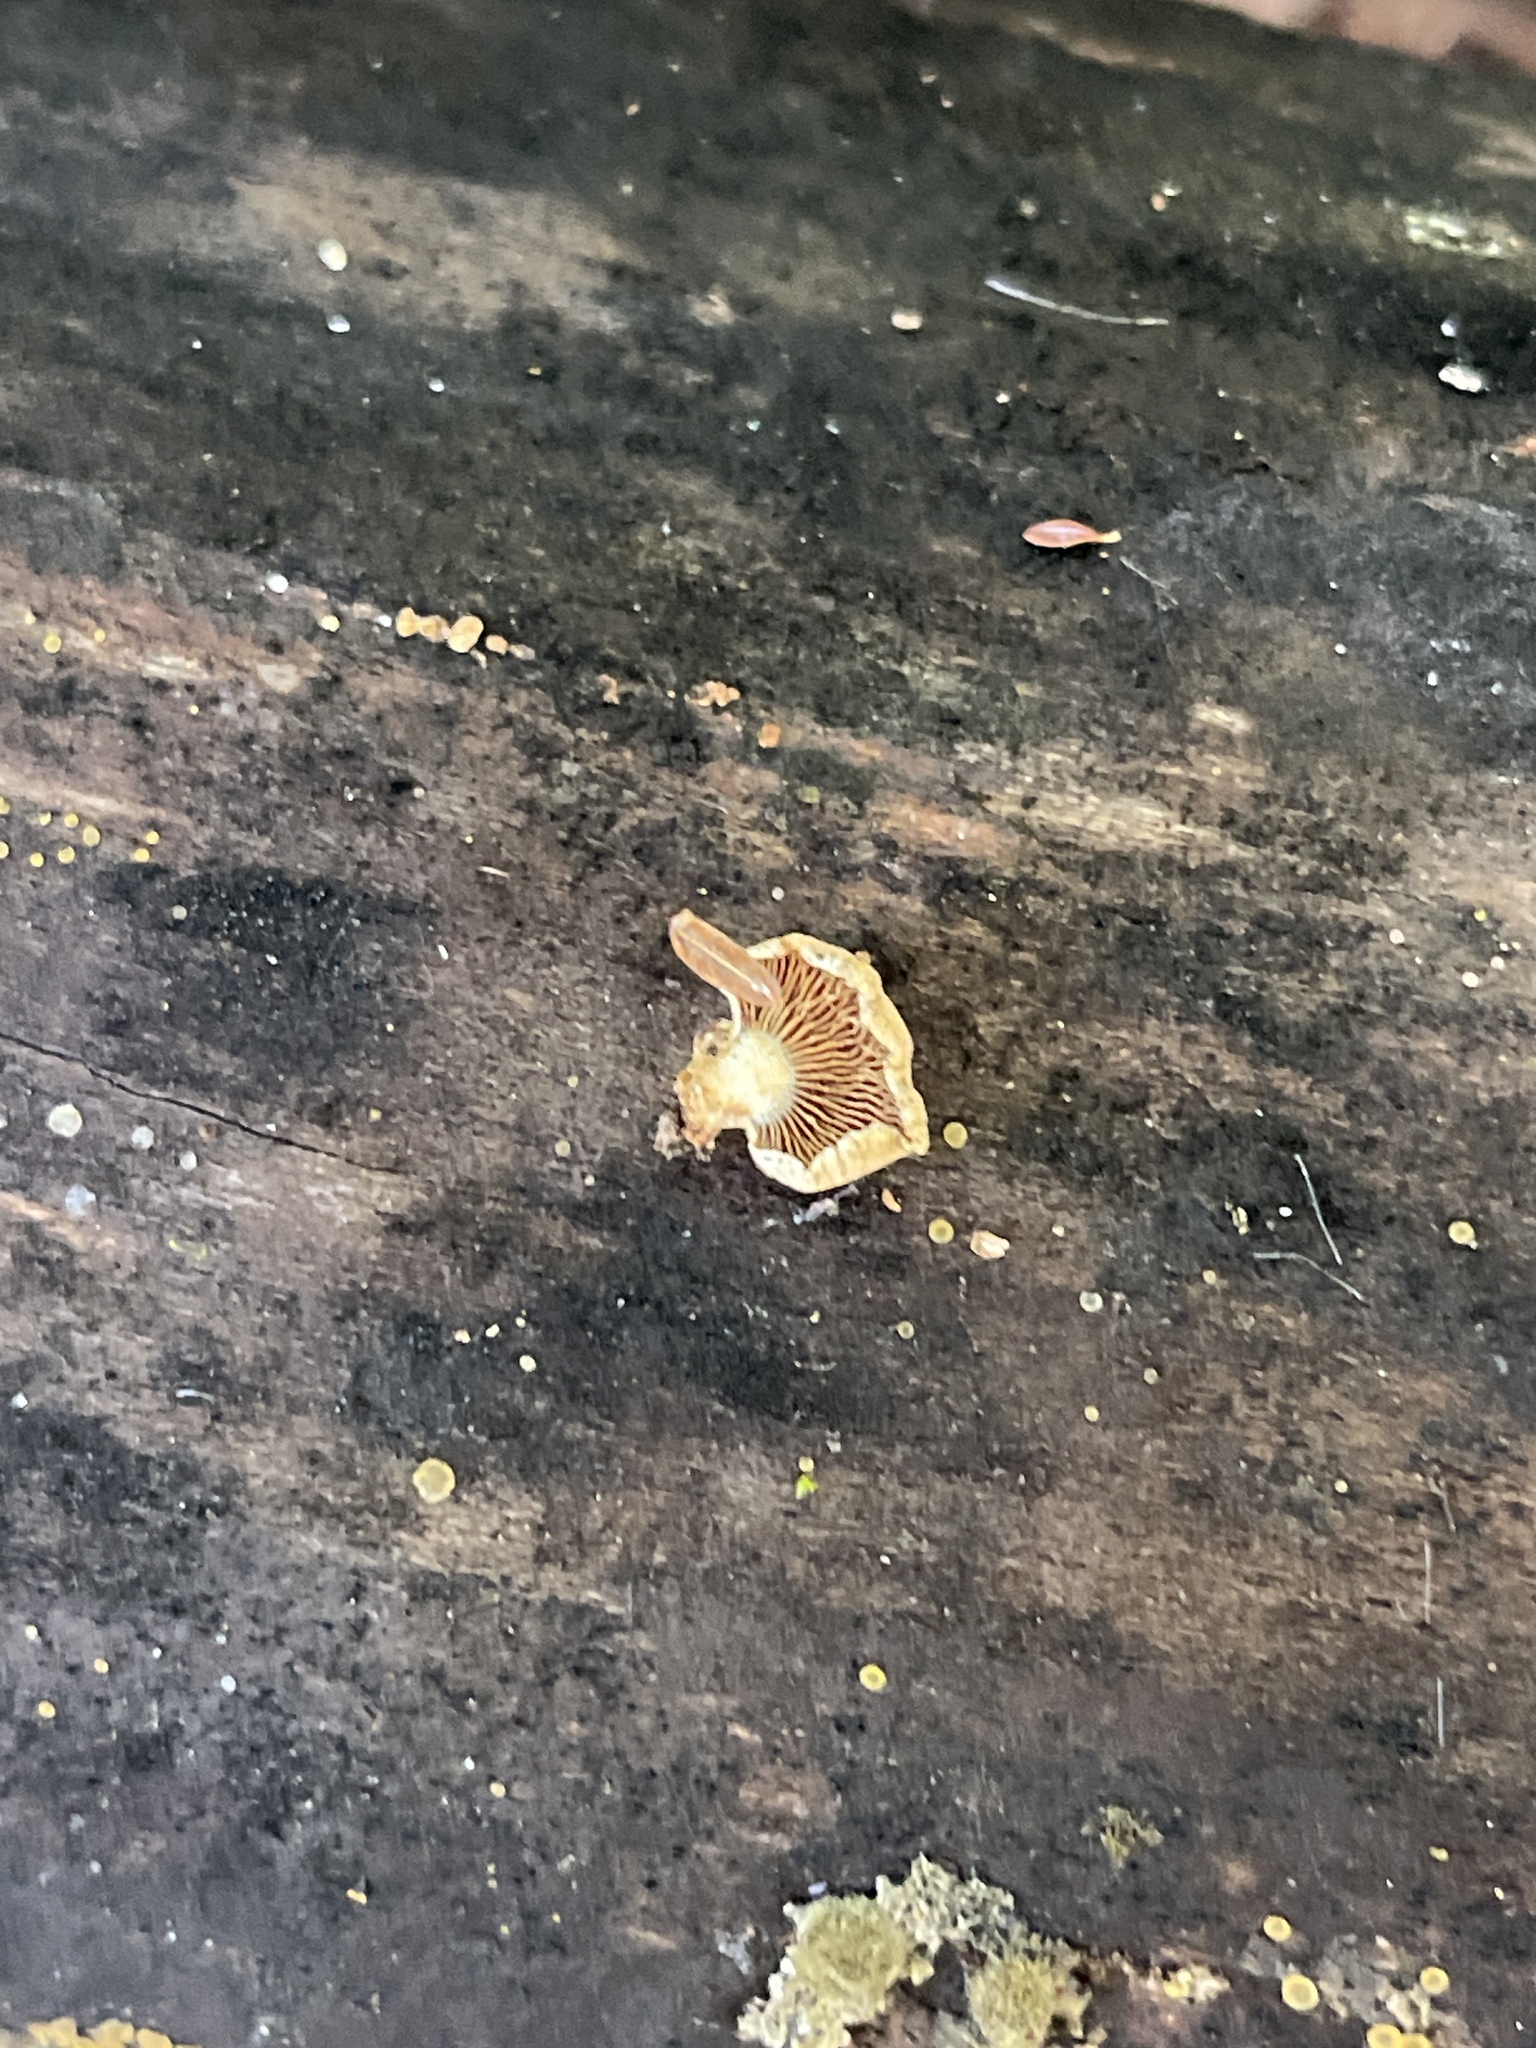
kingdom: Fungi
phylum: Basidiomycota
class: Agaricomycetes
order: Agaricales
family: Mycenaceae
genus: Panellus
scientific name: Panellus stipticus
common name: Bitter oysterling
